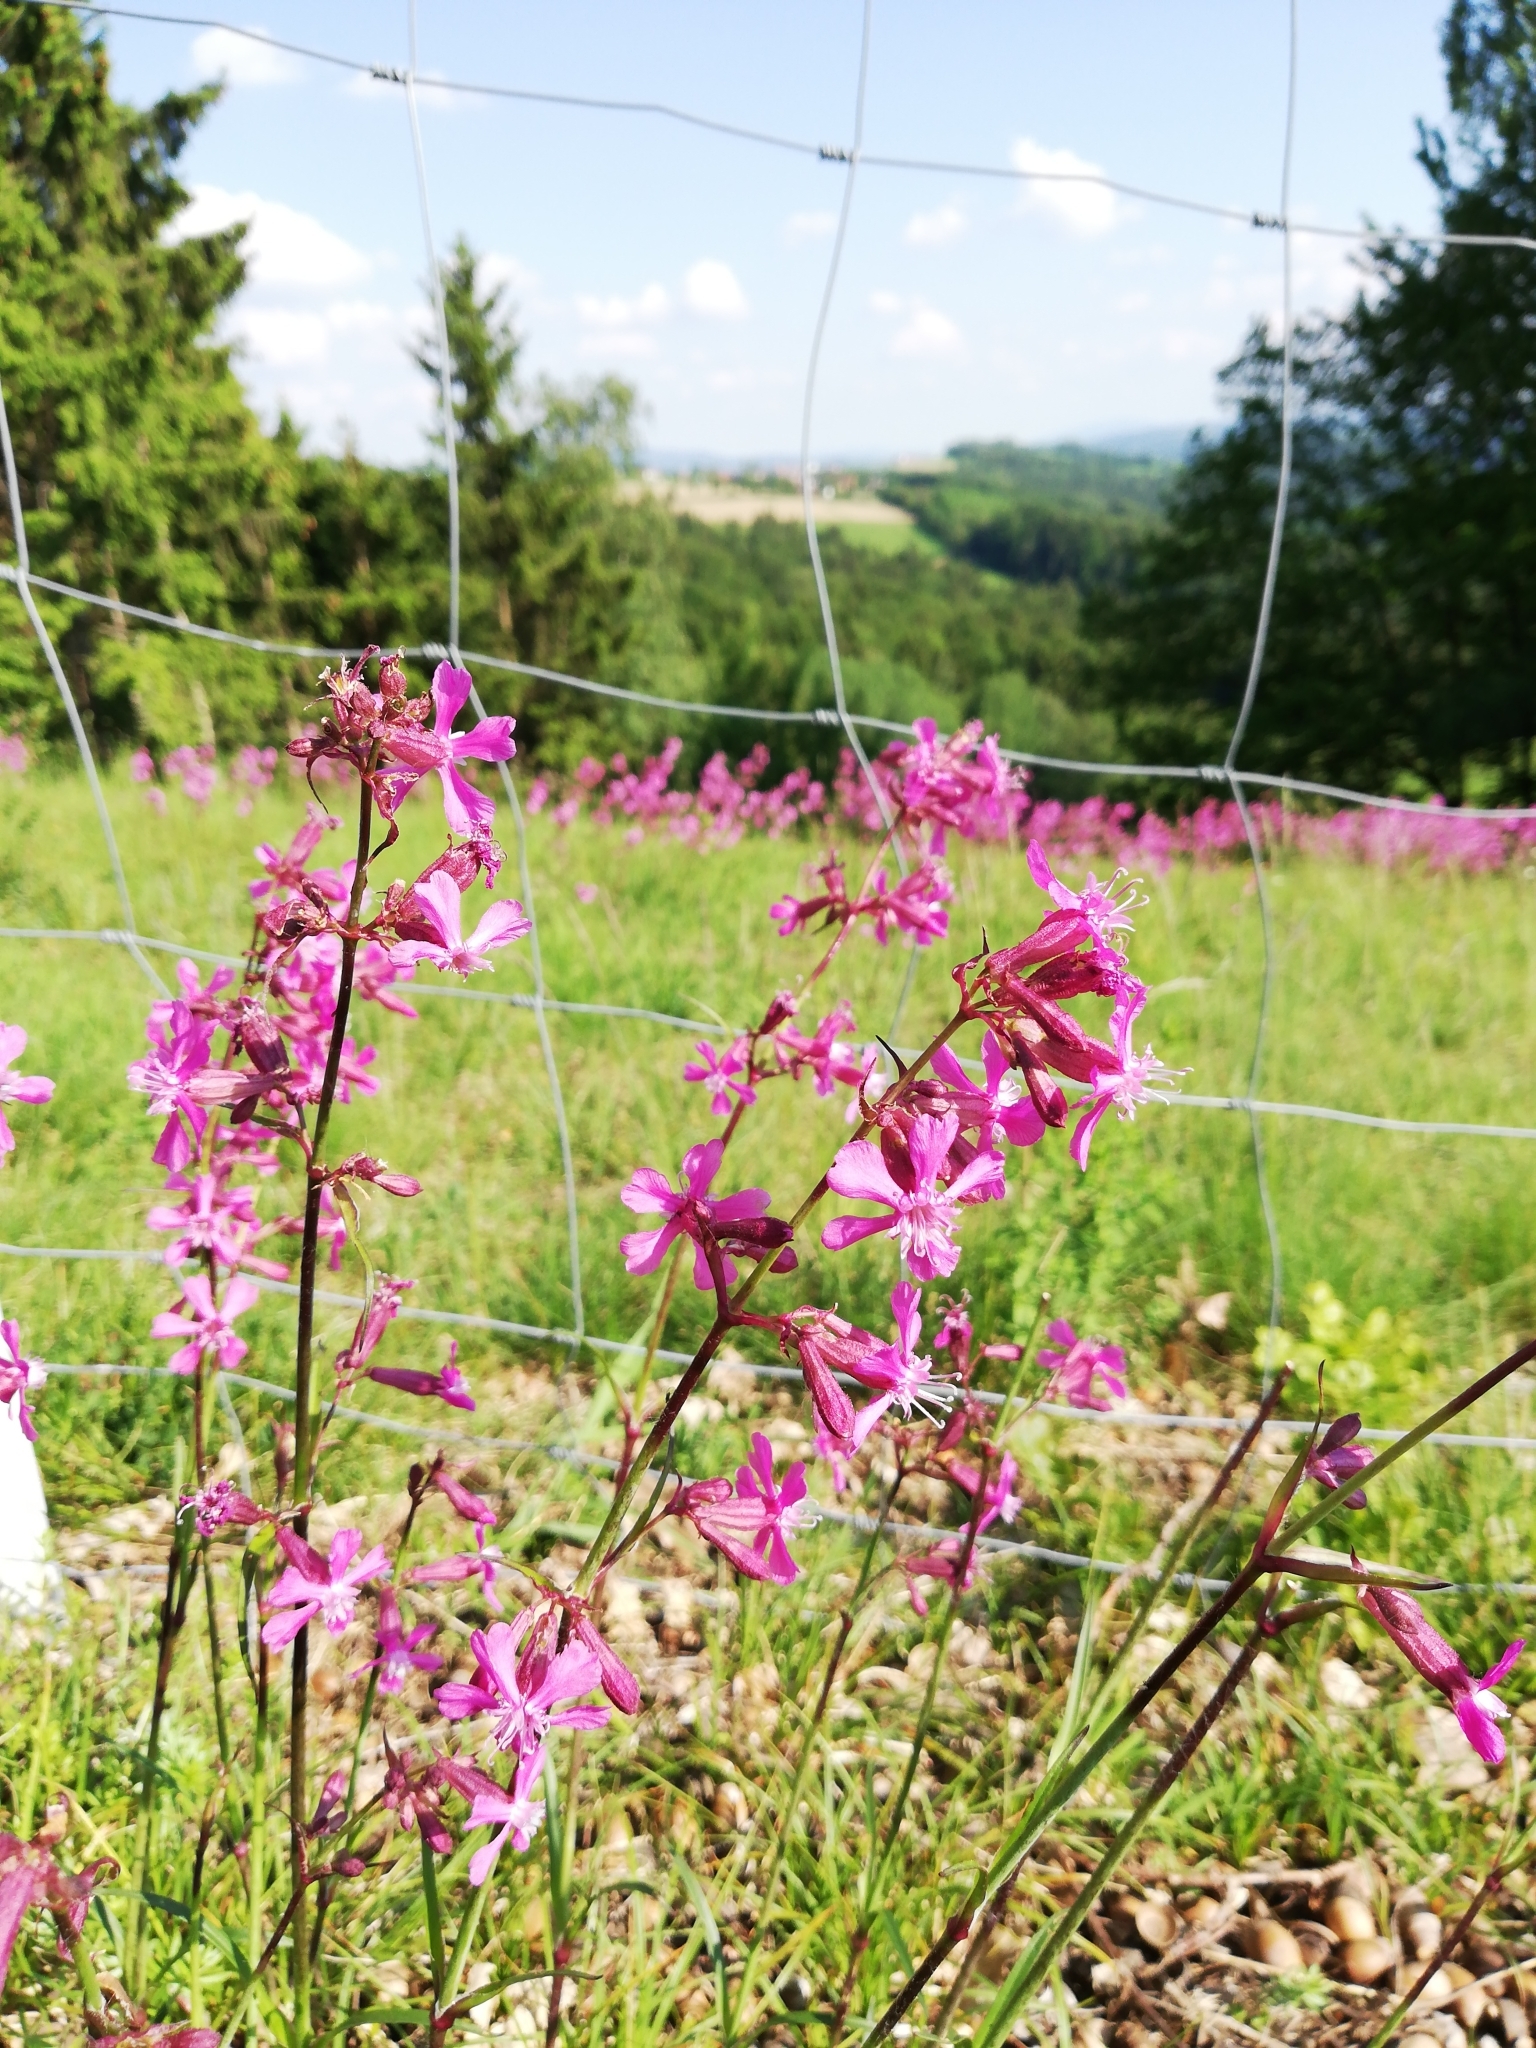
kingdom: Plantae
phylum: Tracheophyta
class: Magnoliopsida
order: Caryophyllales
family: Caryophyllaceae
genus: Viscaria
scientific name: Viscaria vulgaris
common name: Clammy campion
